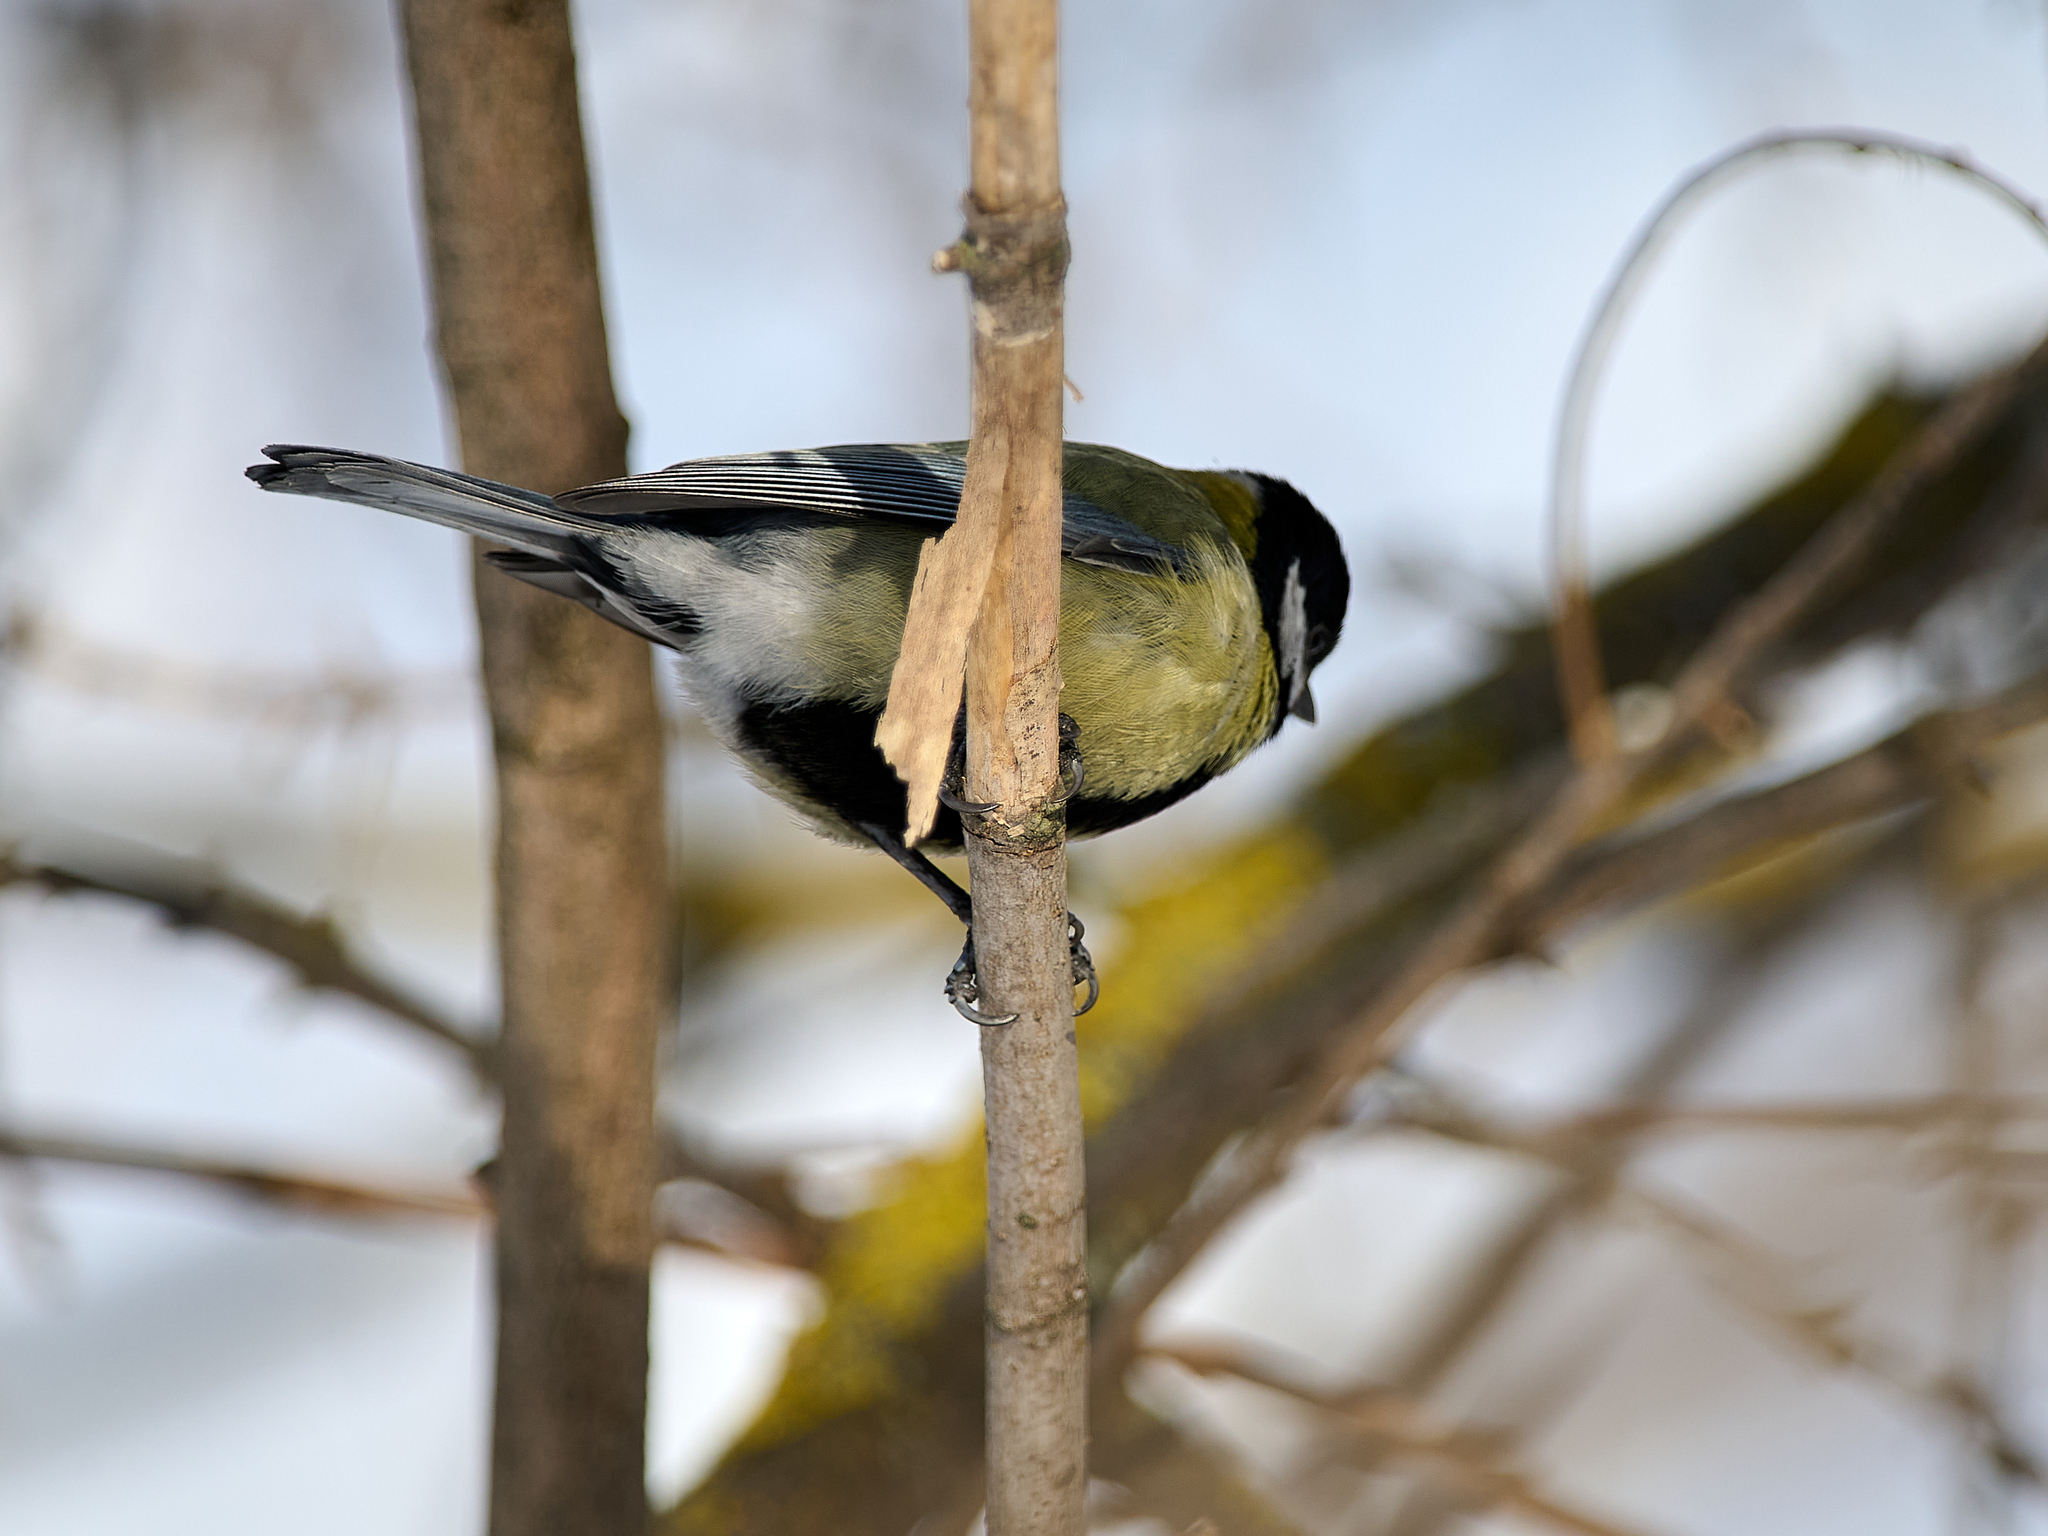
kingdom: Animalia
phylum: Chordata
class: Aves
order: Passeriformes
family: Paridae
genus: Parus
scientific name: Parus major
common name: Great tit
